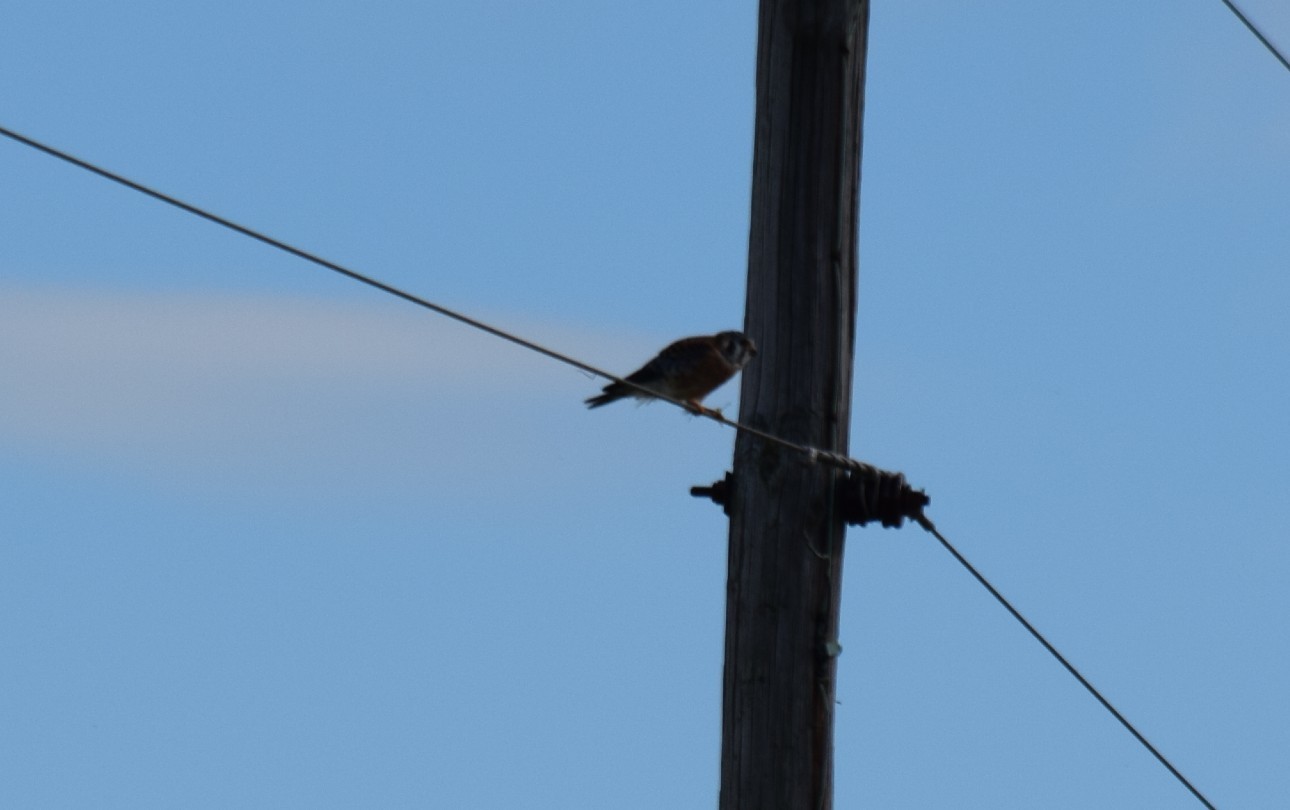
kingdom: Animalia
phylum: Chordata
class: Aves
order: Falconiformes
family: Falconidae
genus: Falco
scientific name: Falco sparverius
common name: American kestrel
